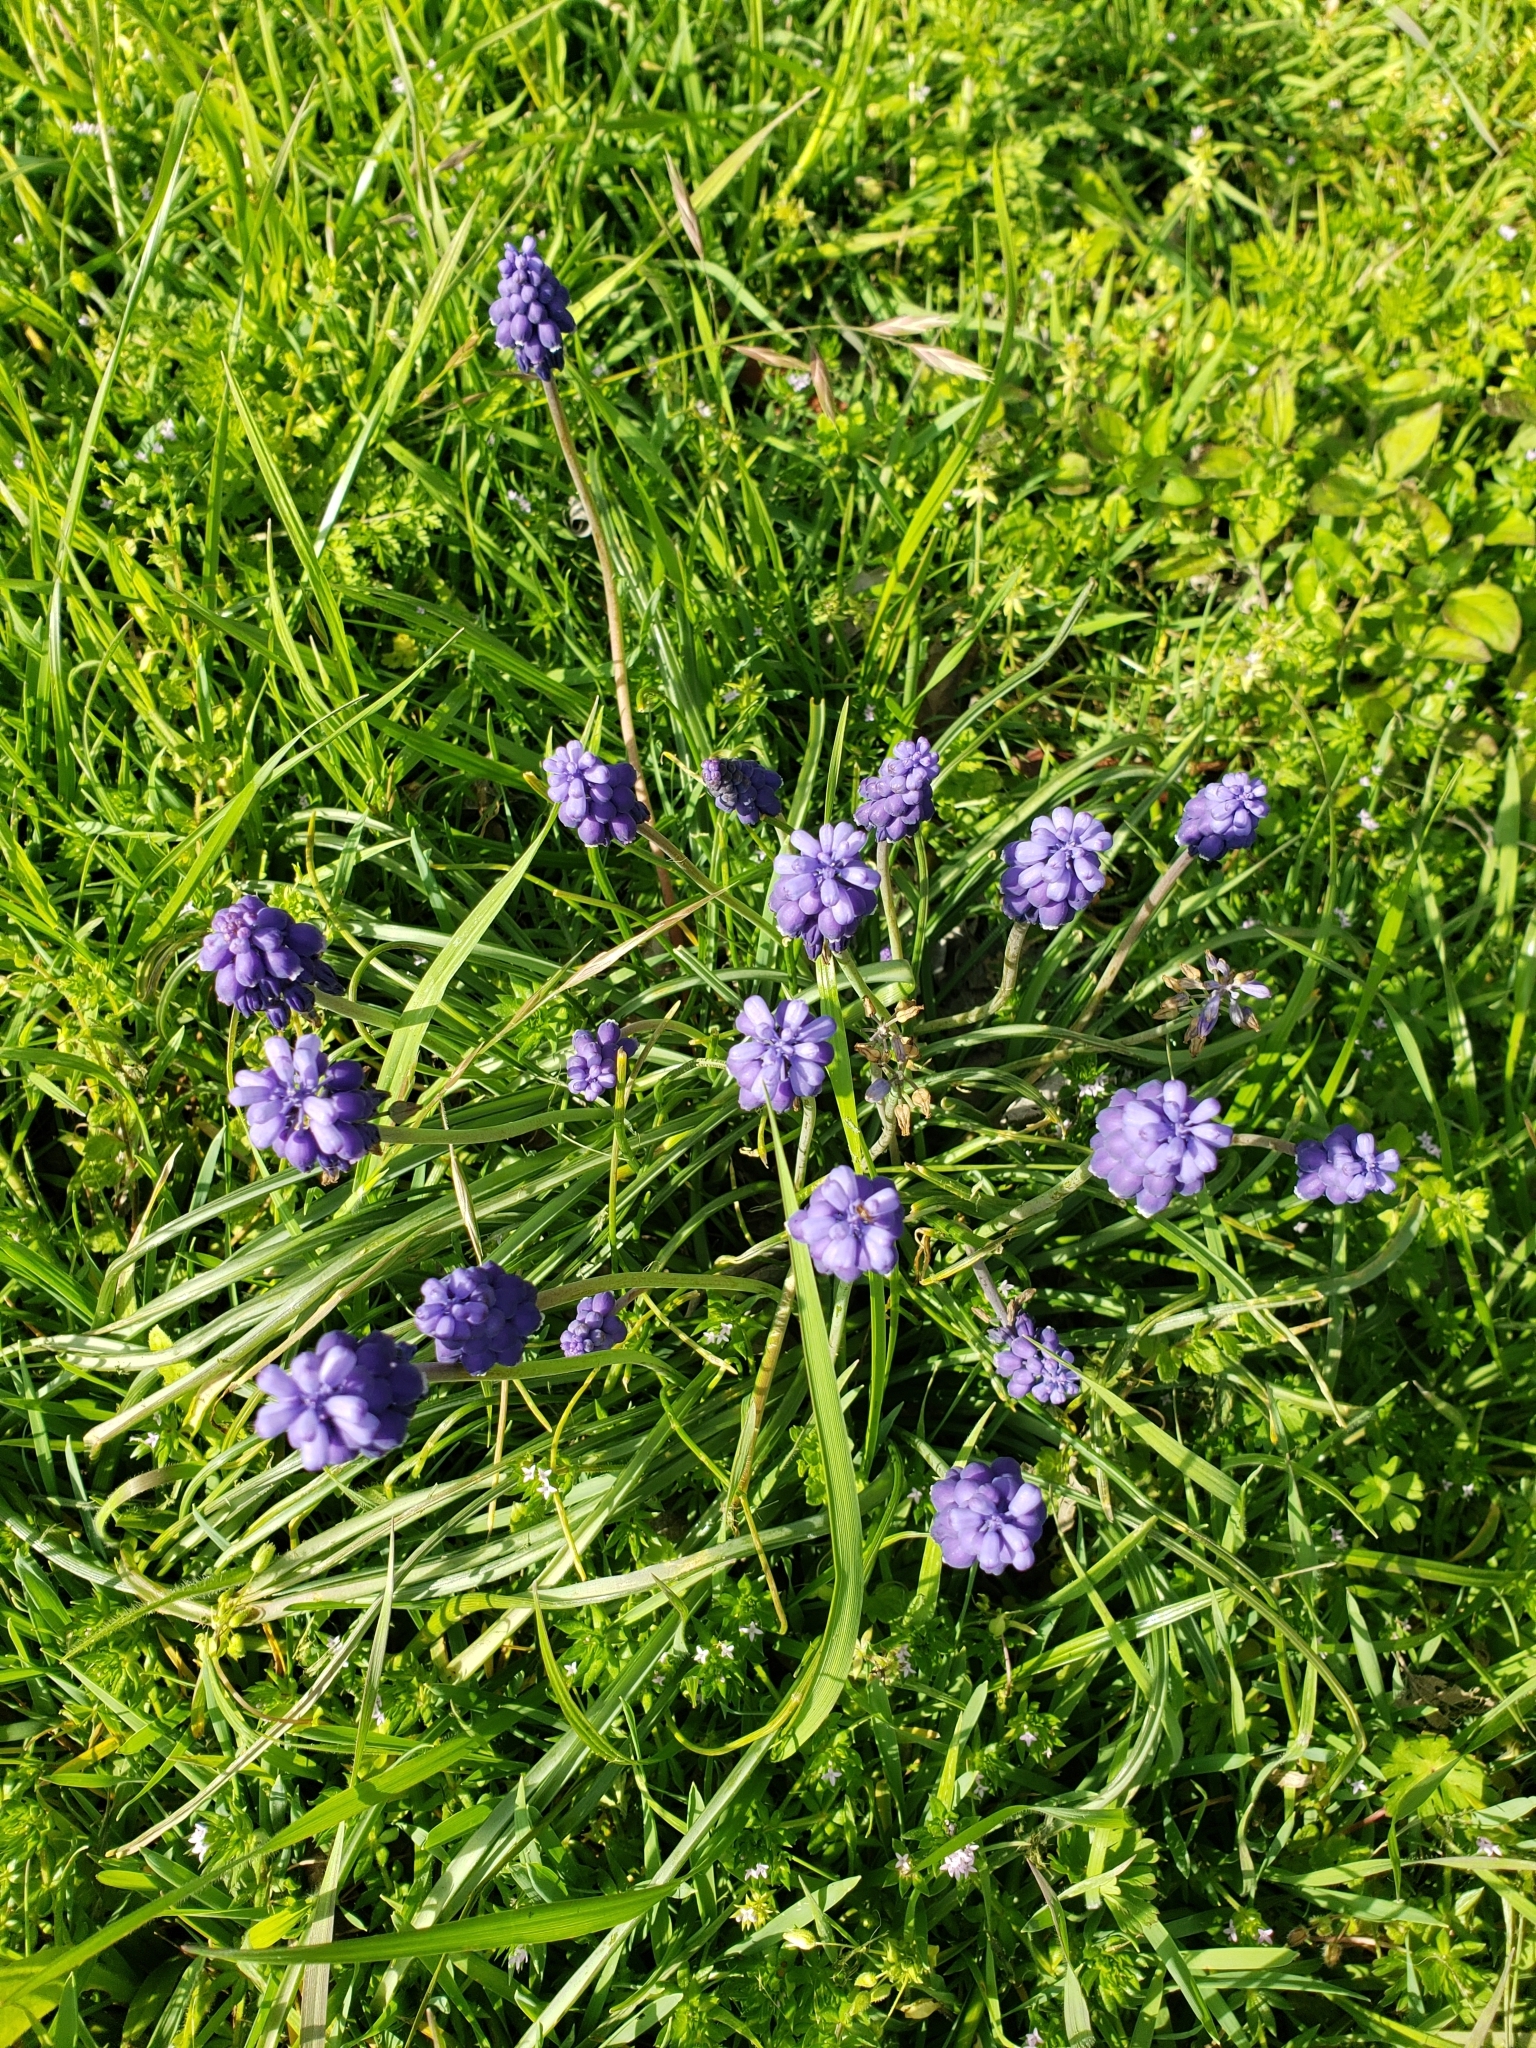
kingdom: Plantae
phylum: Tracheophyta
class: Liliopsida
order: Asparagales
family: Asparagaceae
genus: Muscari
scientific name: Muscari neglectum
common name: Grape-hyacinth
